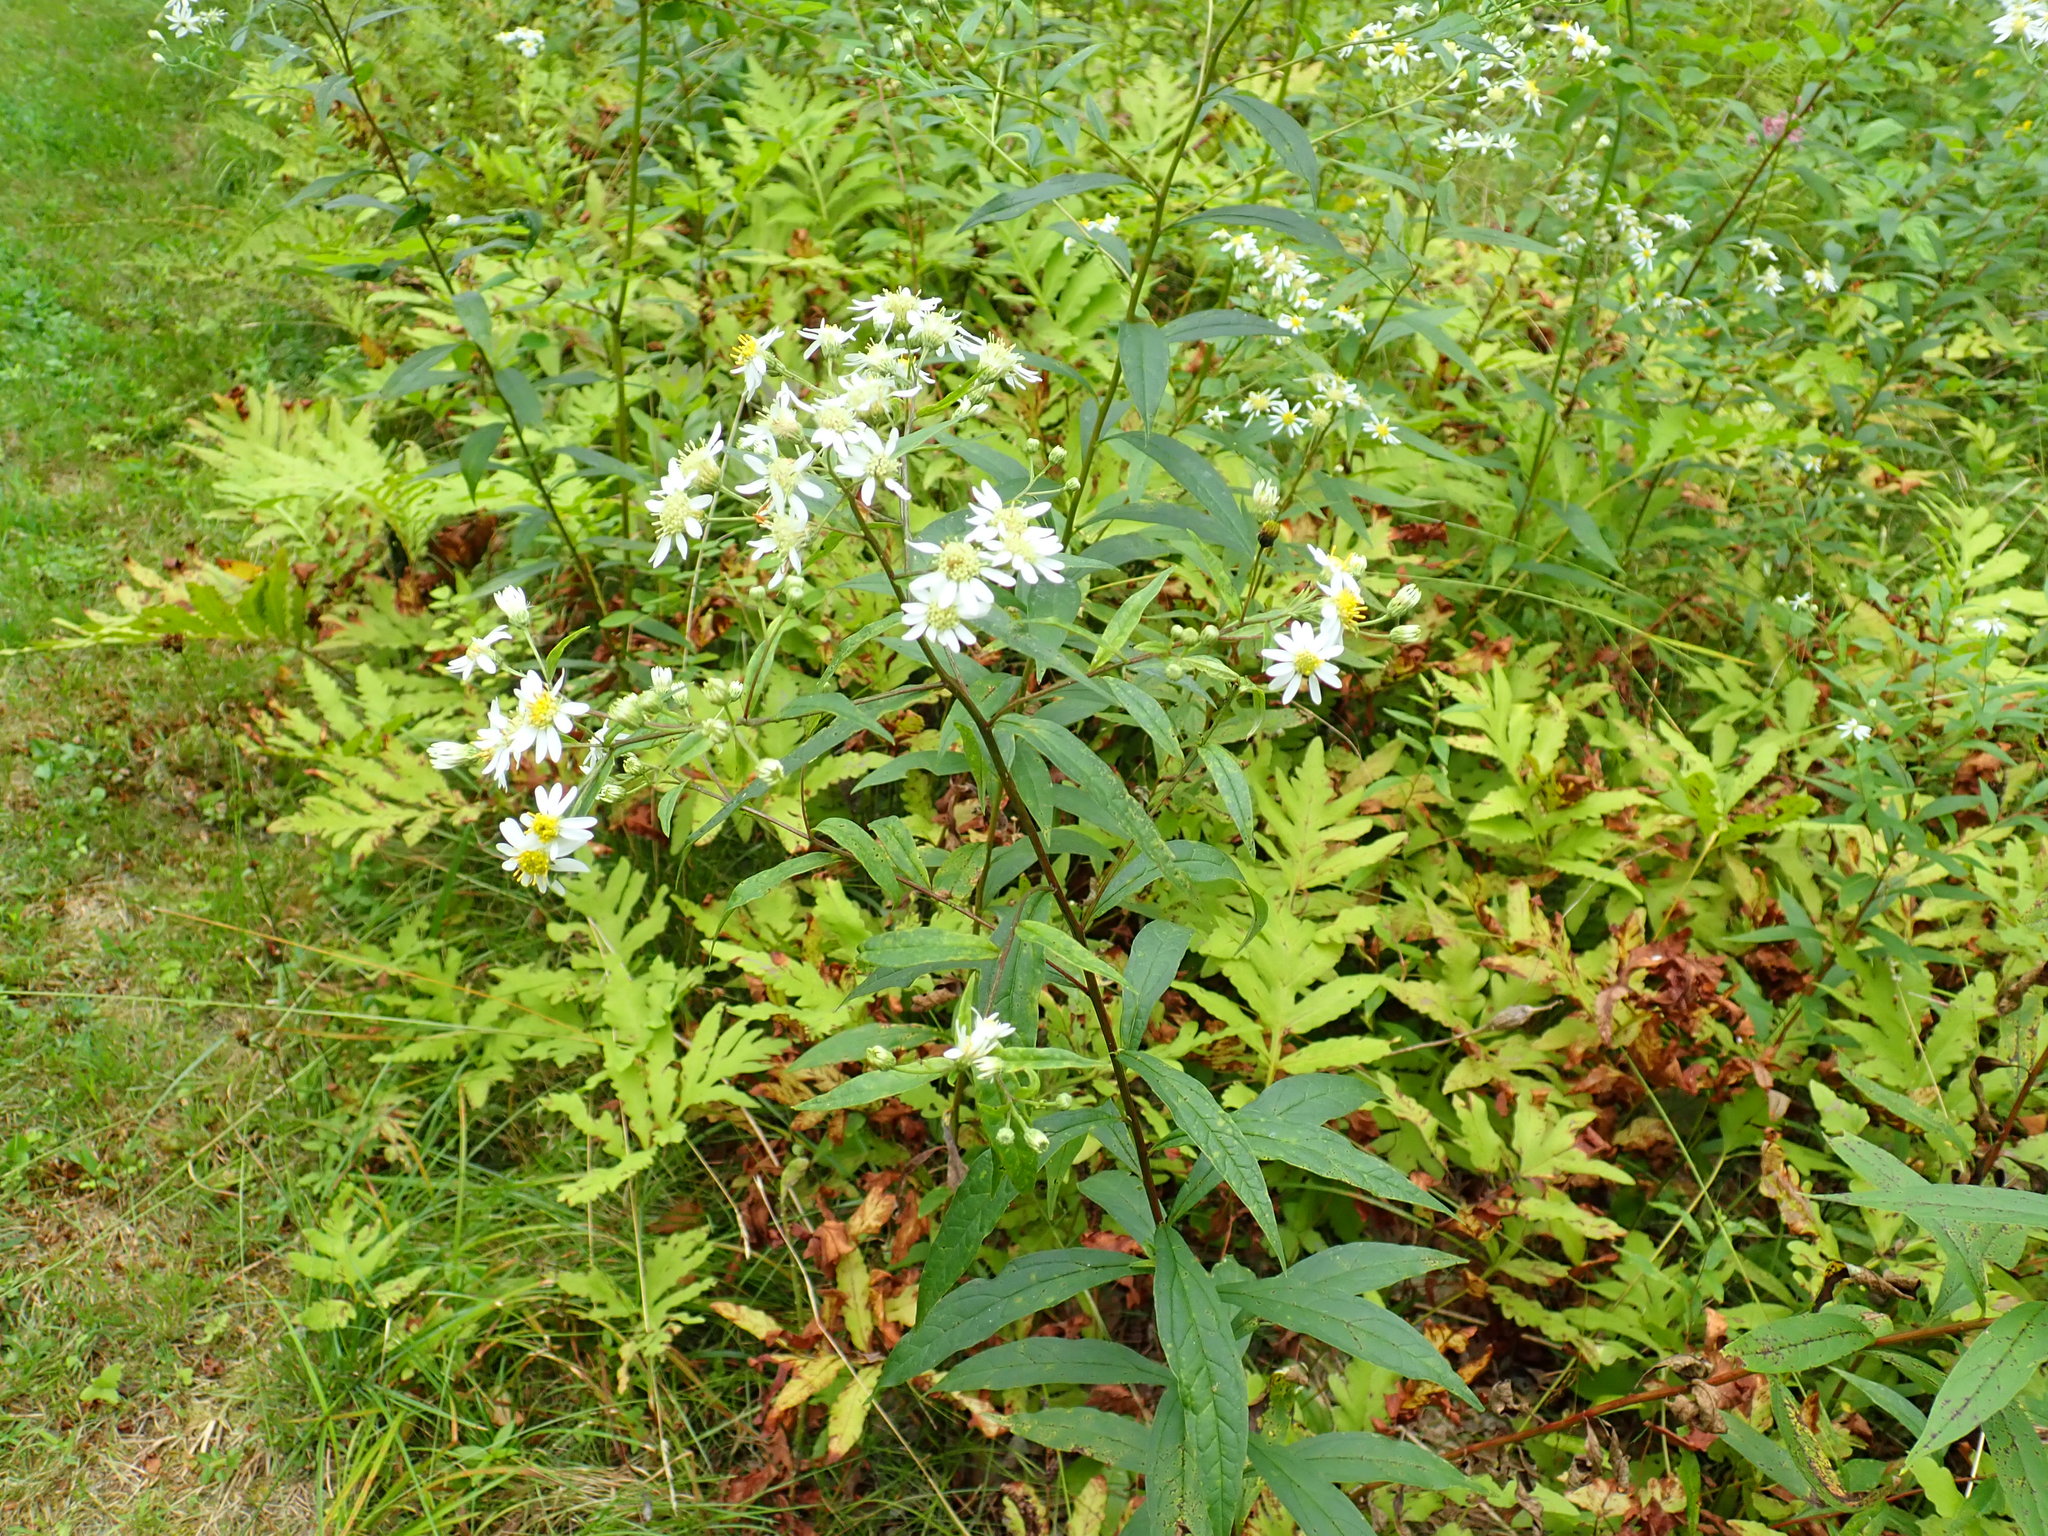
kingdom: Plantae
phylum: Tracheophyta
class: Magnoliopsida
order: Asterales
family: Asteraceae
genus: Doellingeria
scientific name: Doellingeria umbellata
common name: Flat-top white aster
